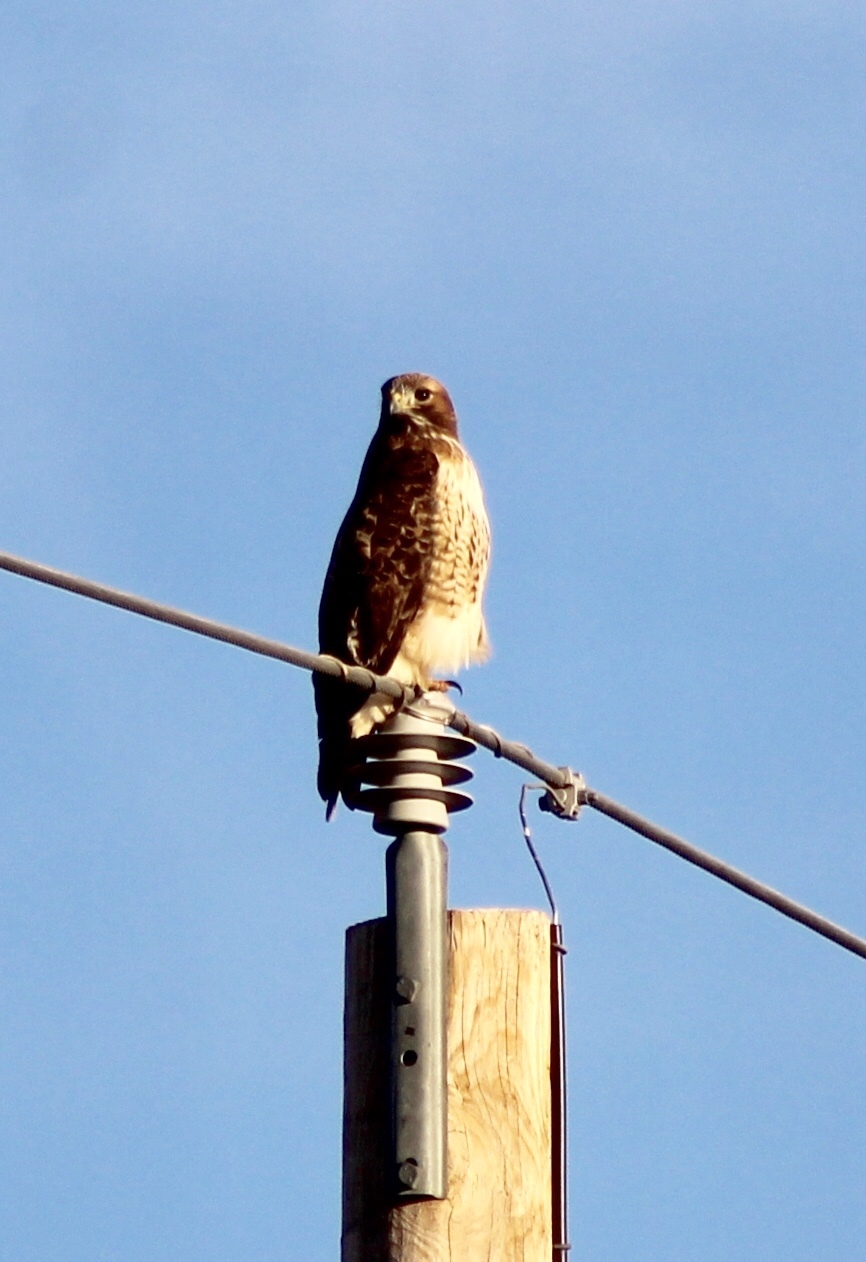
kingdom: Animalia
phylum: Chordata
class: Aves
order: Accipitriformes
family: Accipitridae
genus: Buteo
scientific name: Buteo jamaicensis
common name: Red-tailed hawk
